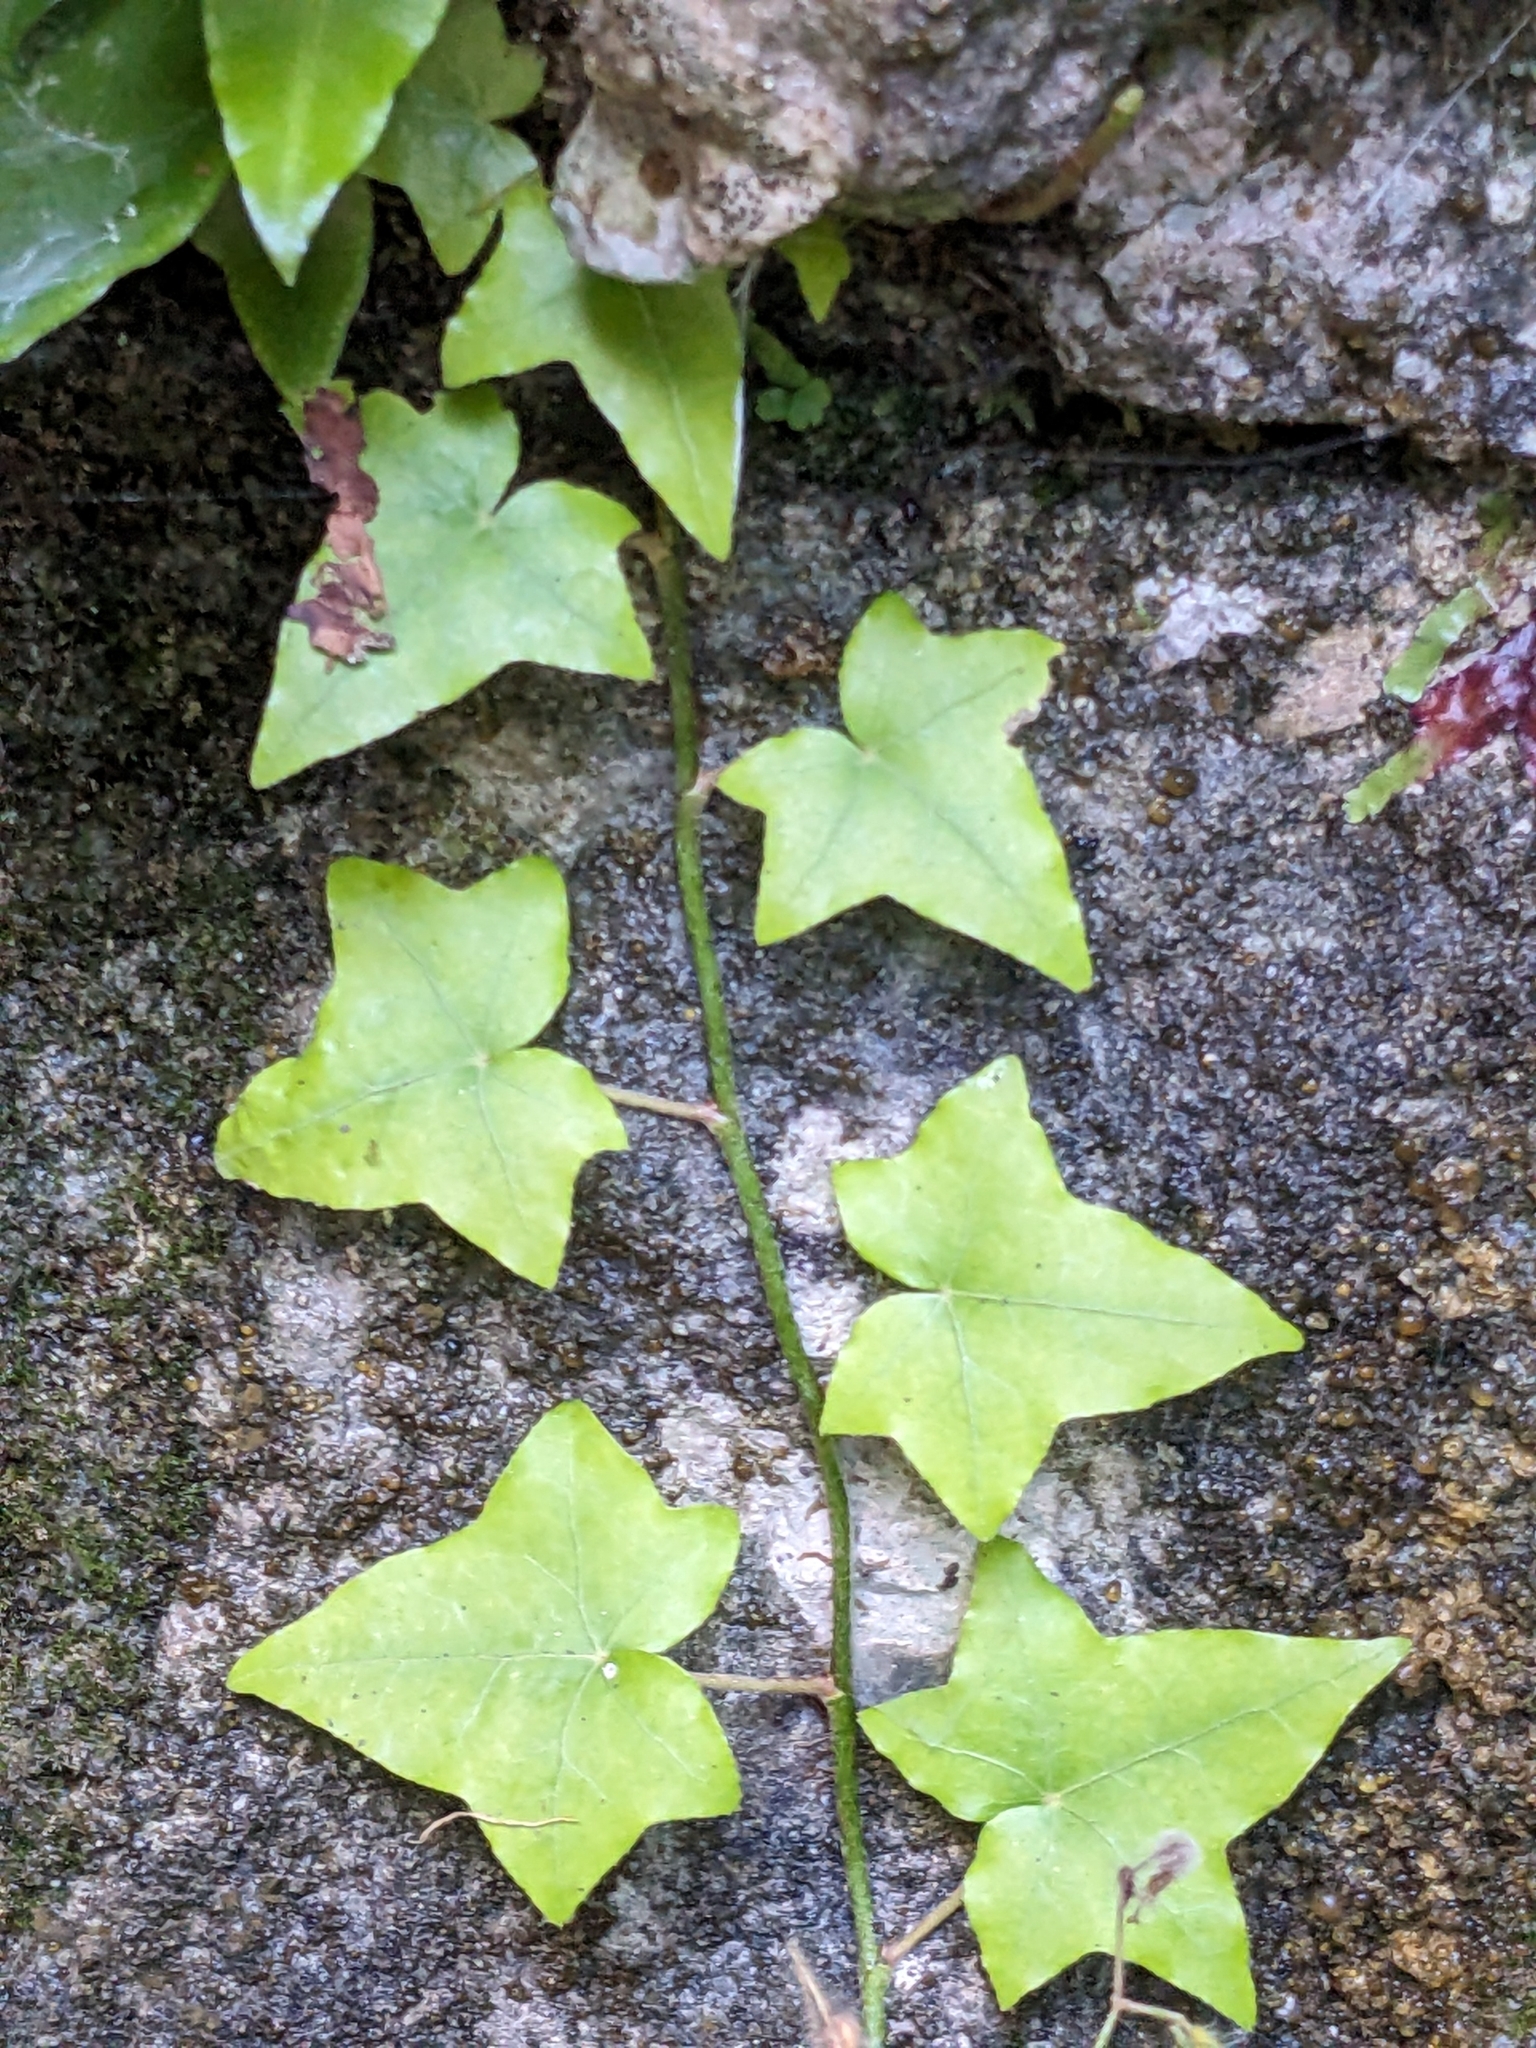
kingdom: Plantae
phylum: Tracheophyta
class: Magnoliopsida
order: Apiales
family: Araliaceae
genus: Hedera
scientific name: Hedera helix
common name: Ivy
